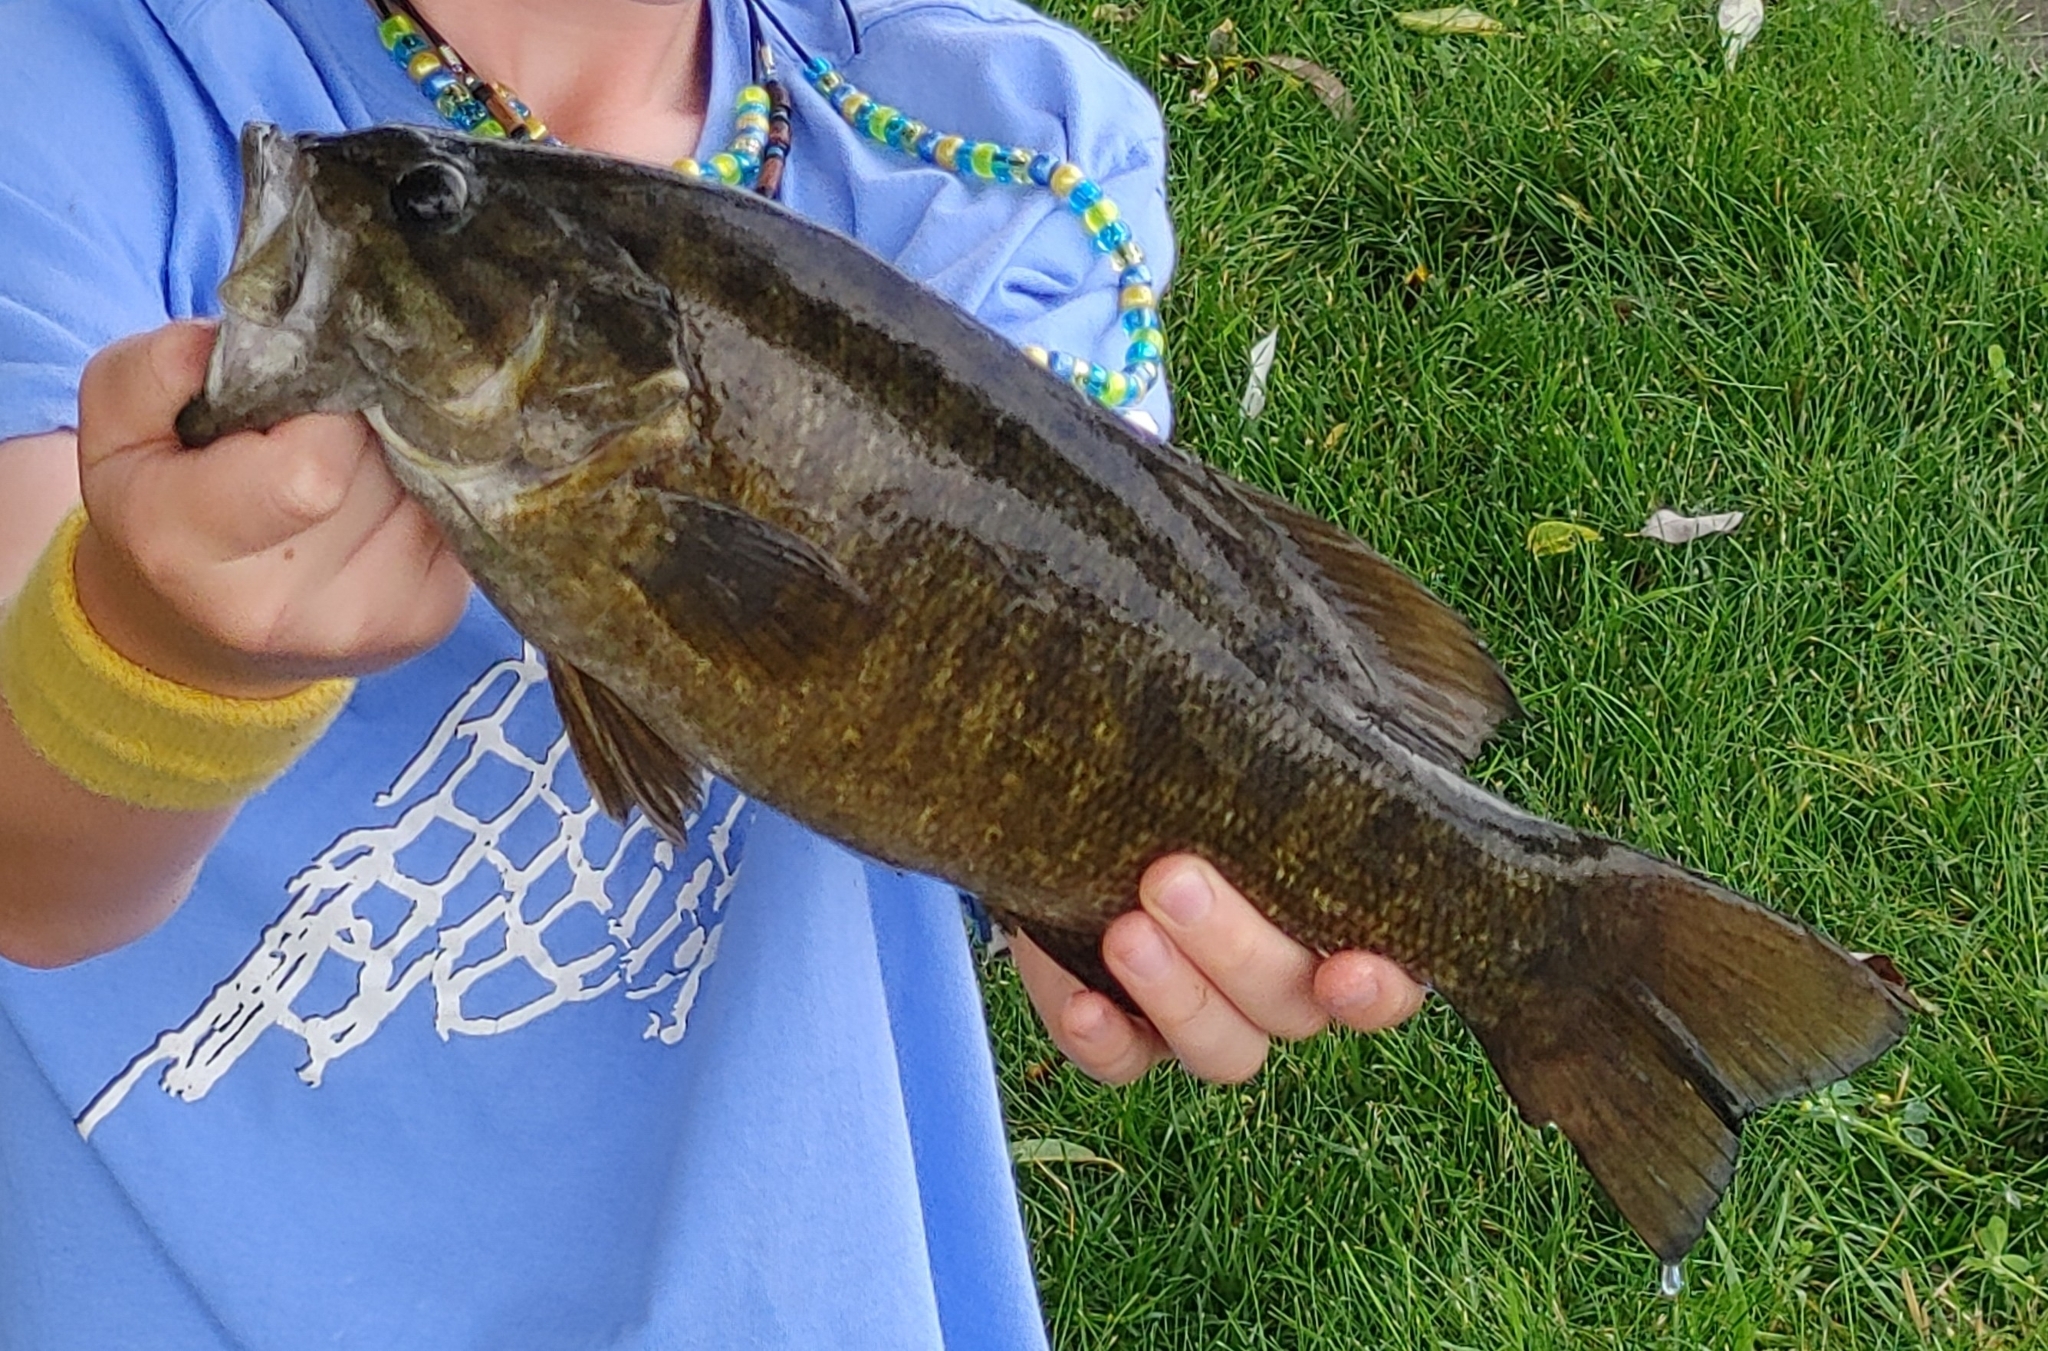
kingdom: Animalia
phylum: Chordata
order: Perciformes
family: Centrarchidae
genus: Micropterus
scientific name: Micropterus dolomieu
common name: Smallmouth bass
